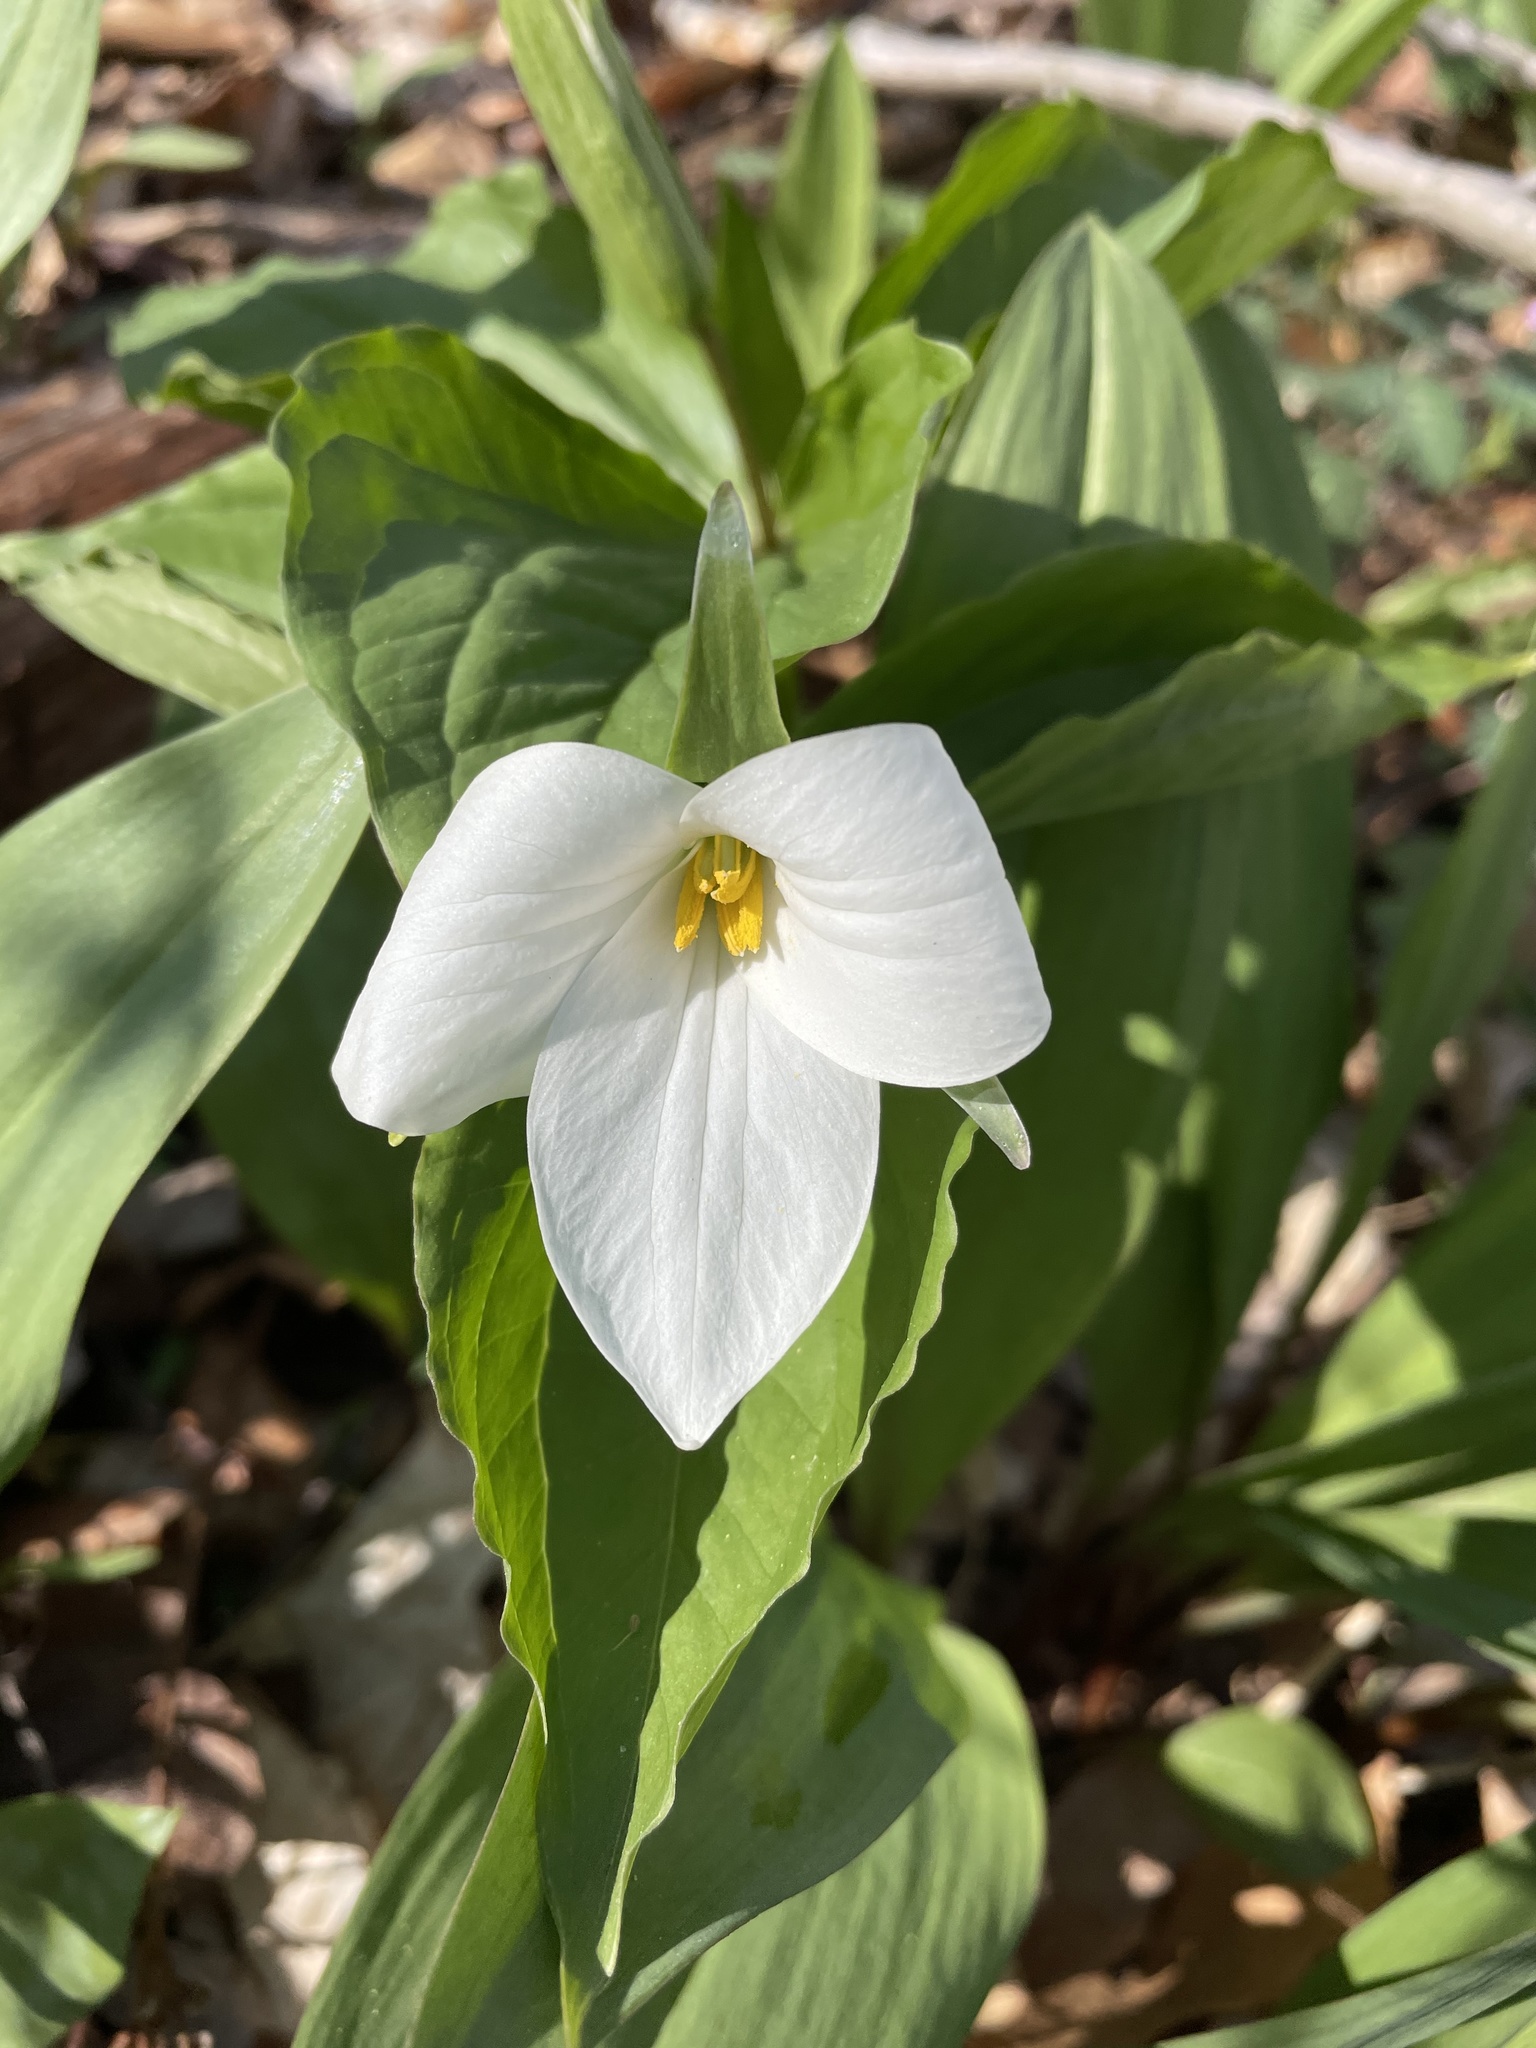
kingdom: Plantae
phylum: Tracheophyta
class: Liliopsida
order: Liliales
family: Melanthiaceae
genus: Trillium
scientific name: Trillium grandiflorum
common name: Great white trillium
